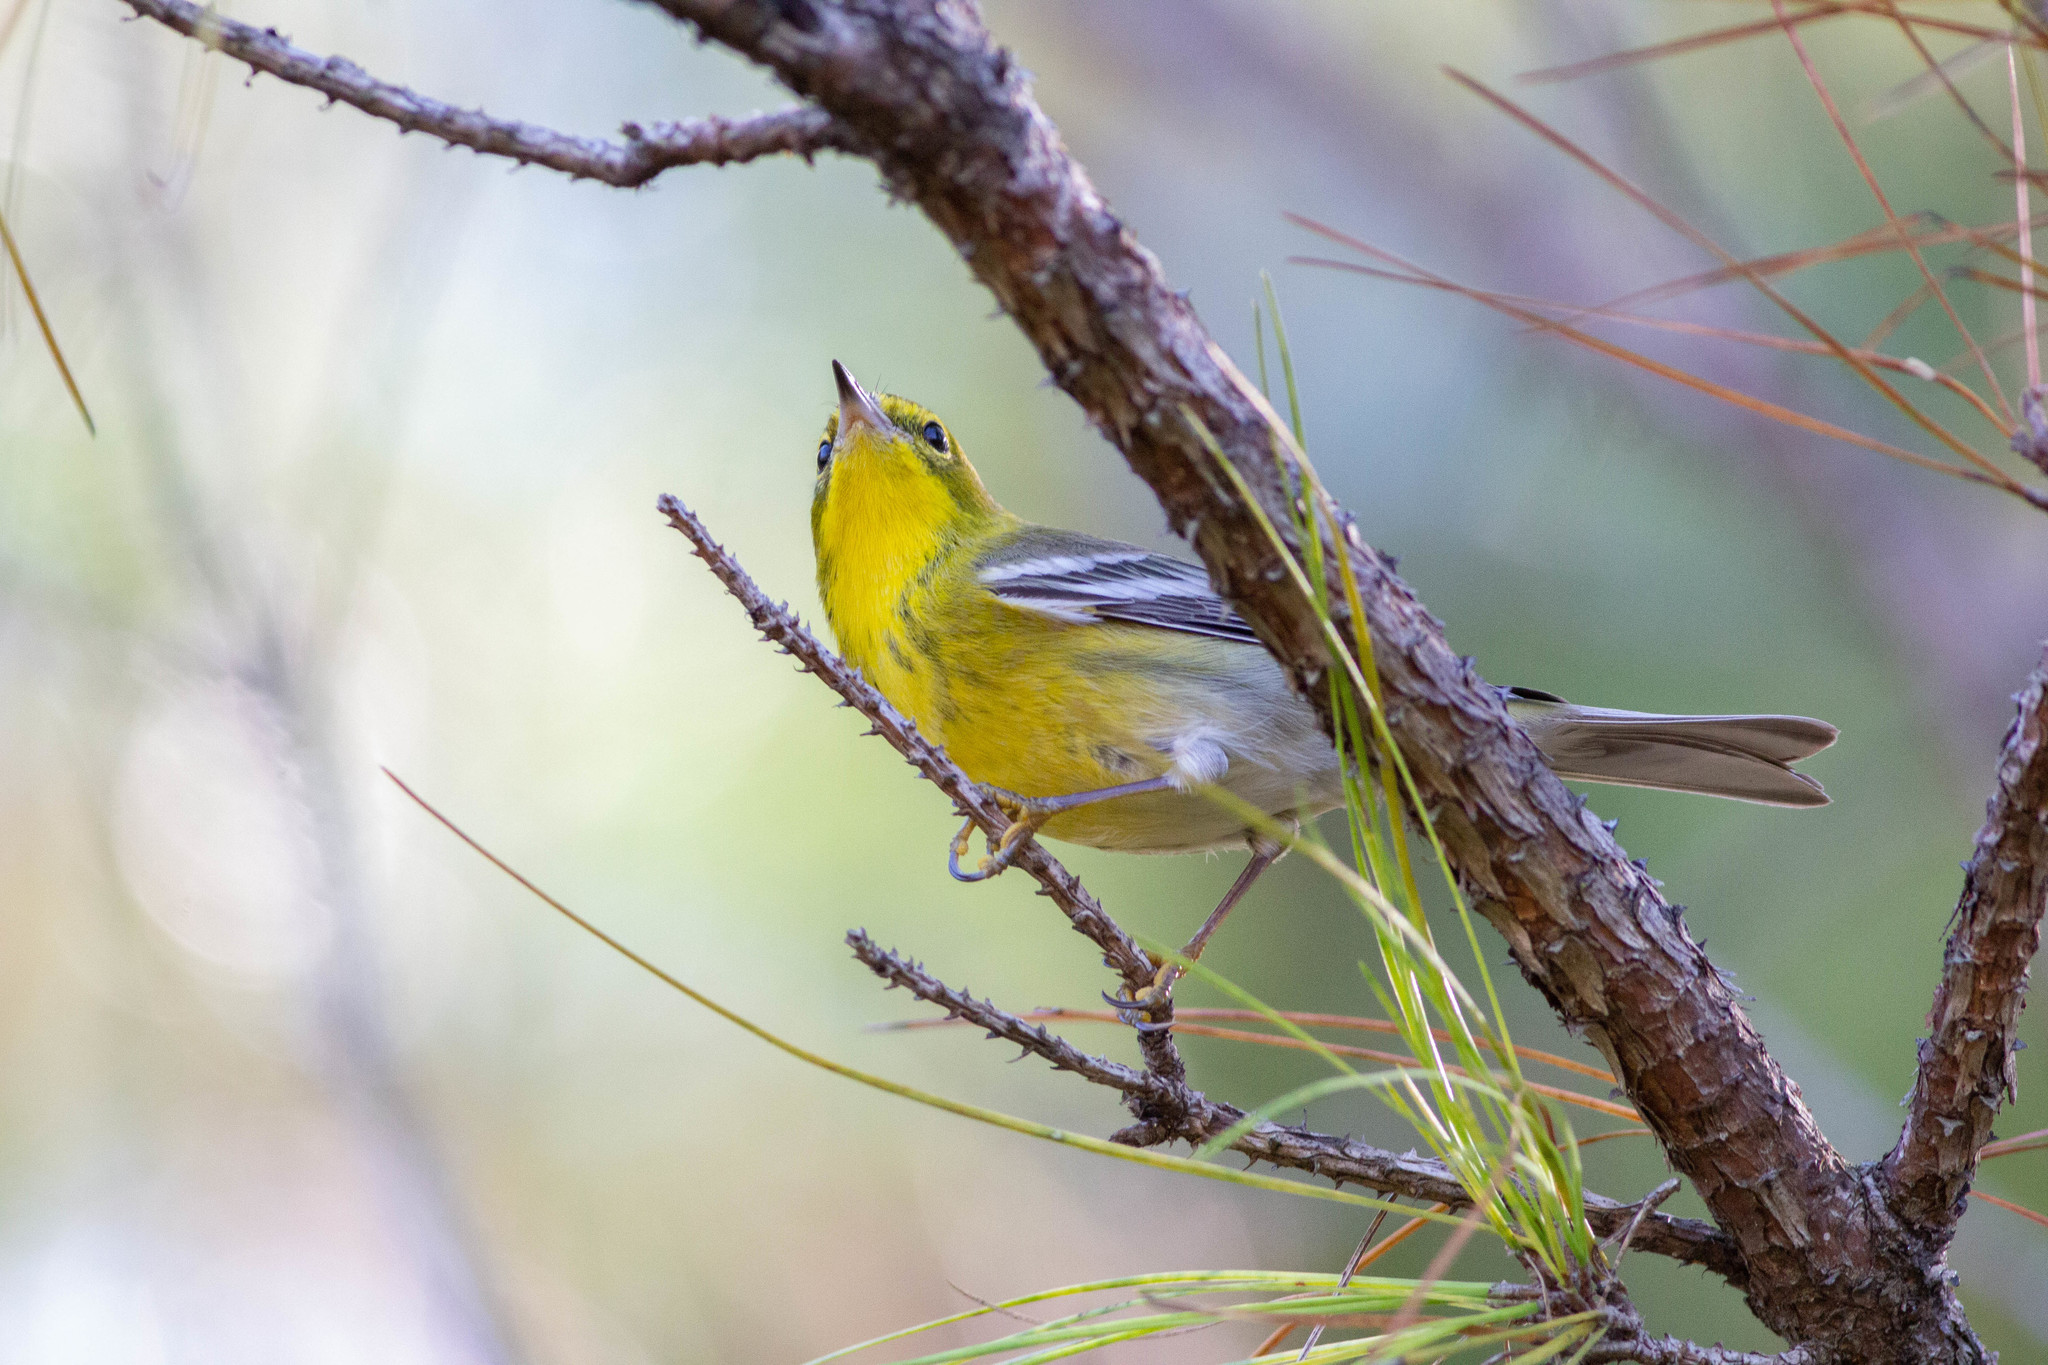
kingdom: Animalia
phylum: Chordata
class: Aves
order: Passeriformes
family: Parulidae
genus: Setophaga
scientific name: Setophaga pinus
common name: Pine warbler
